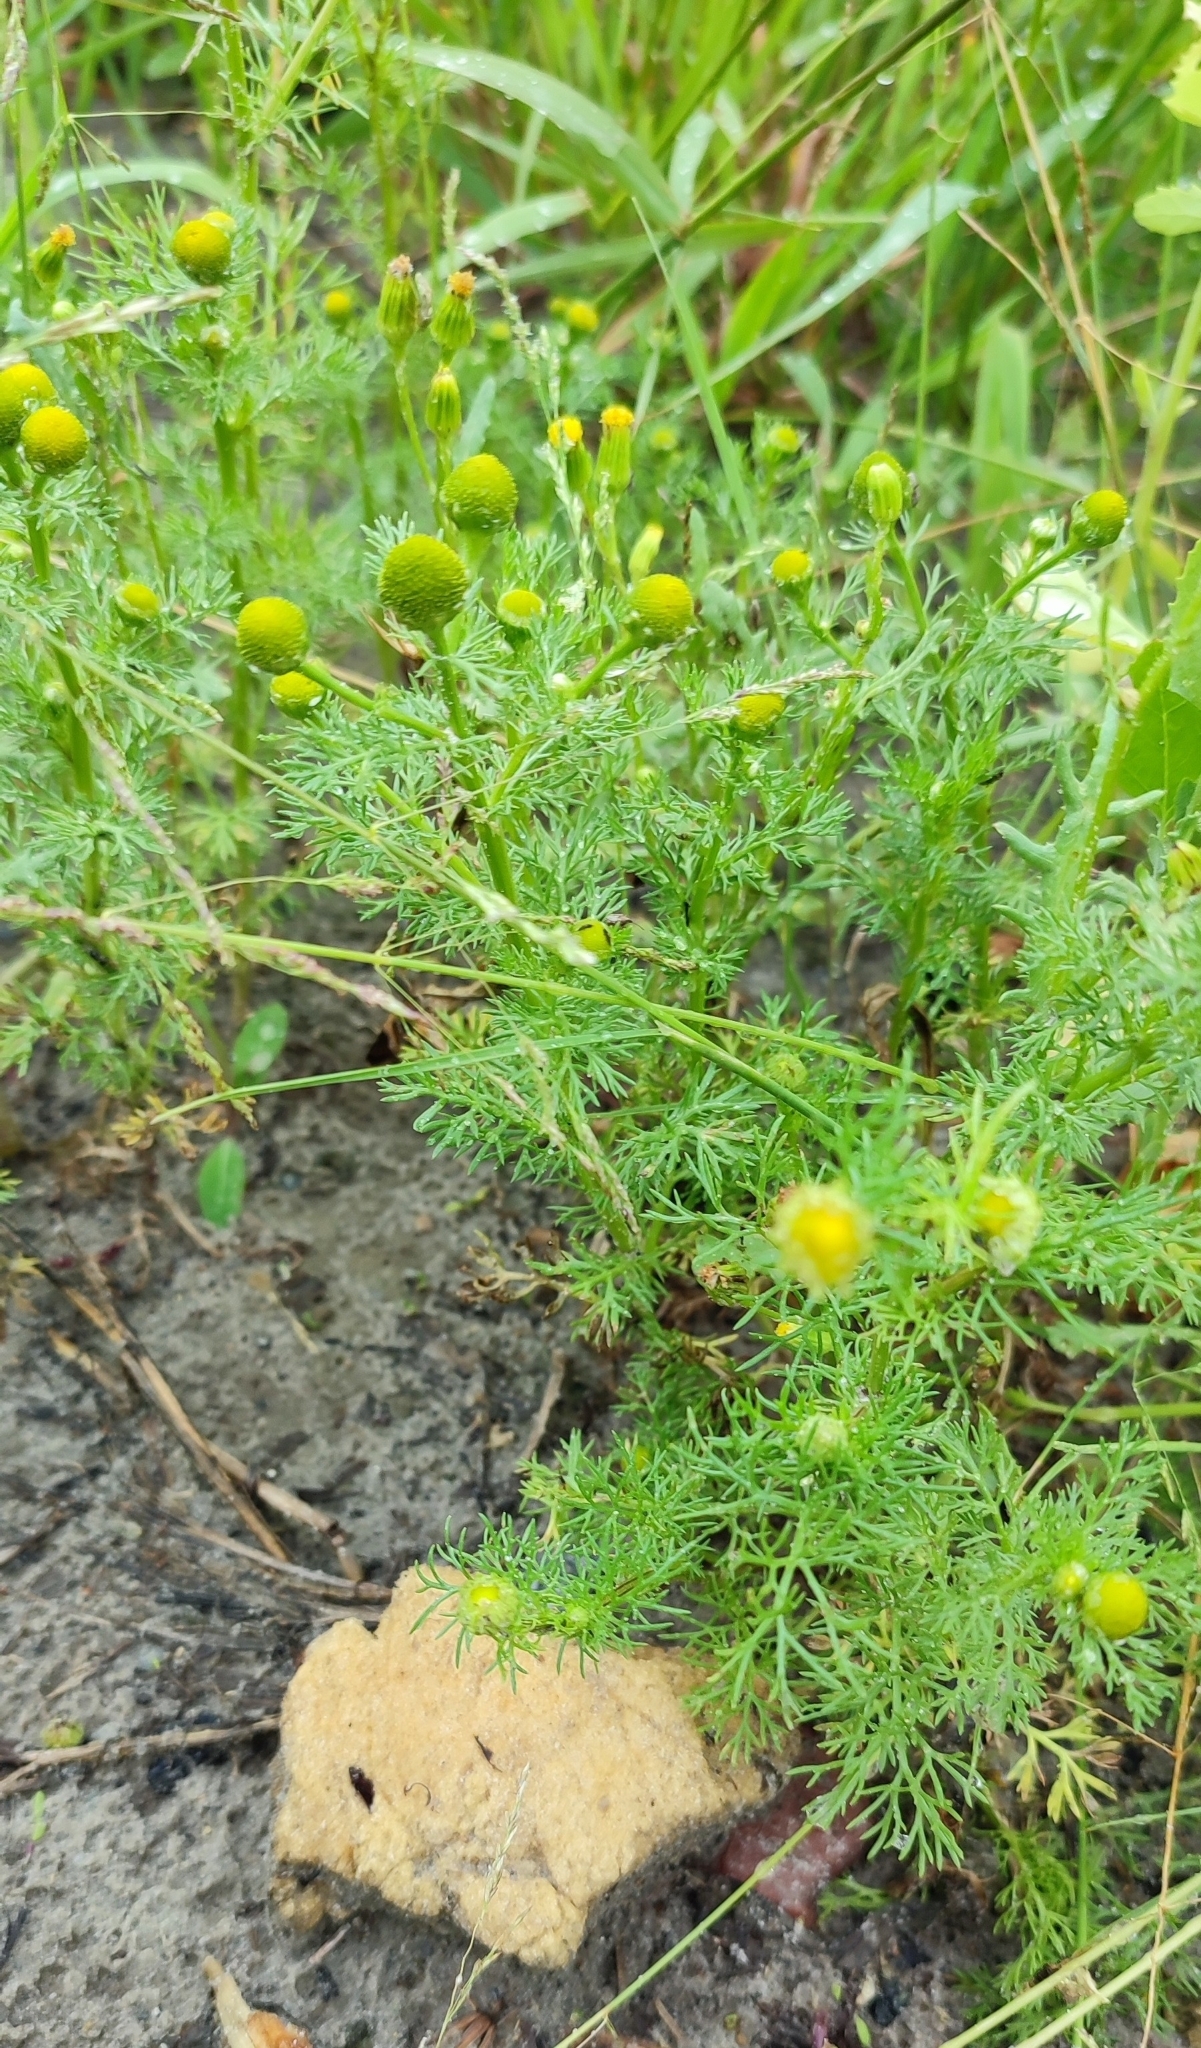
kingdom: Plantae
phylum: Tracheophyta
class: Magnoliopsida
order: Asterales
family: Asteraceae
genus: Matricaria
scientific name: Matricaria discoidea
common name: Disc mayweed
